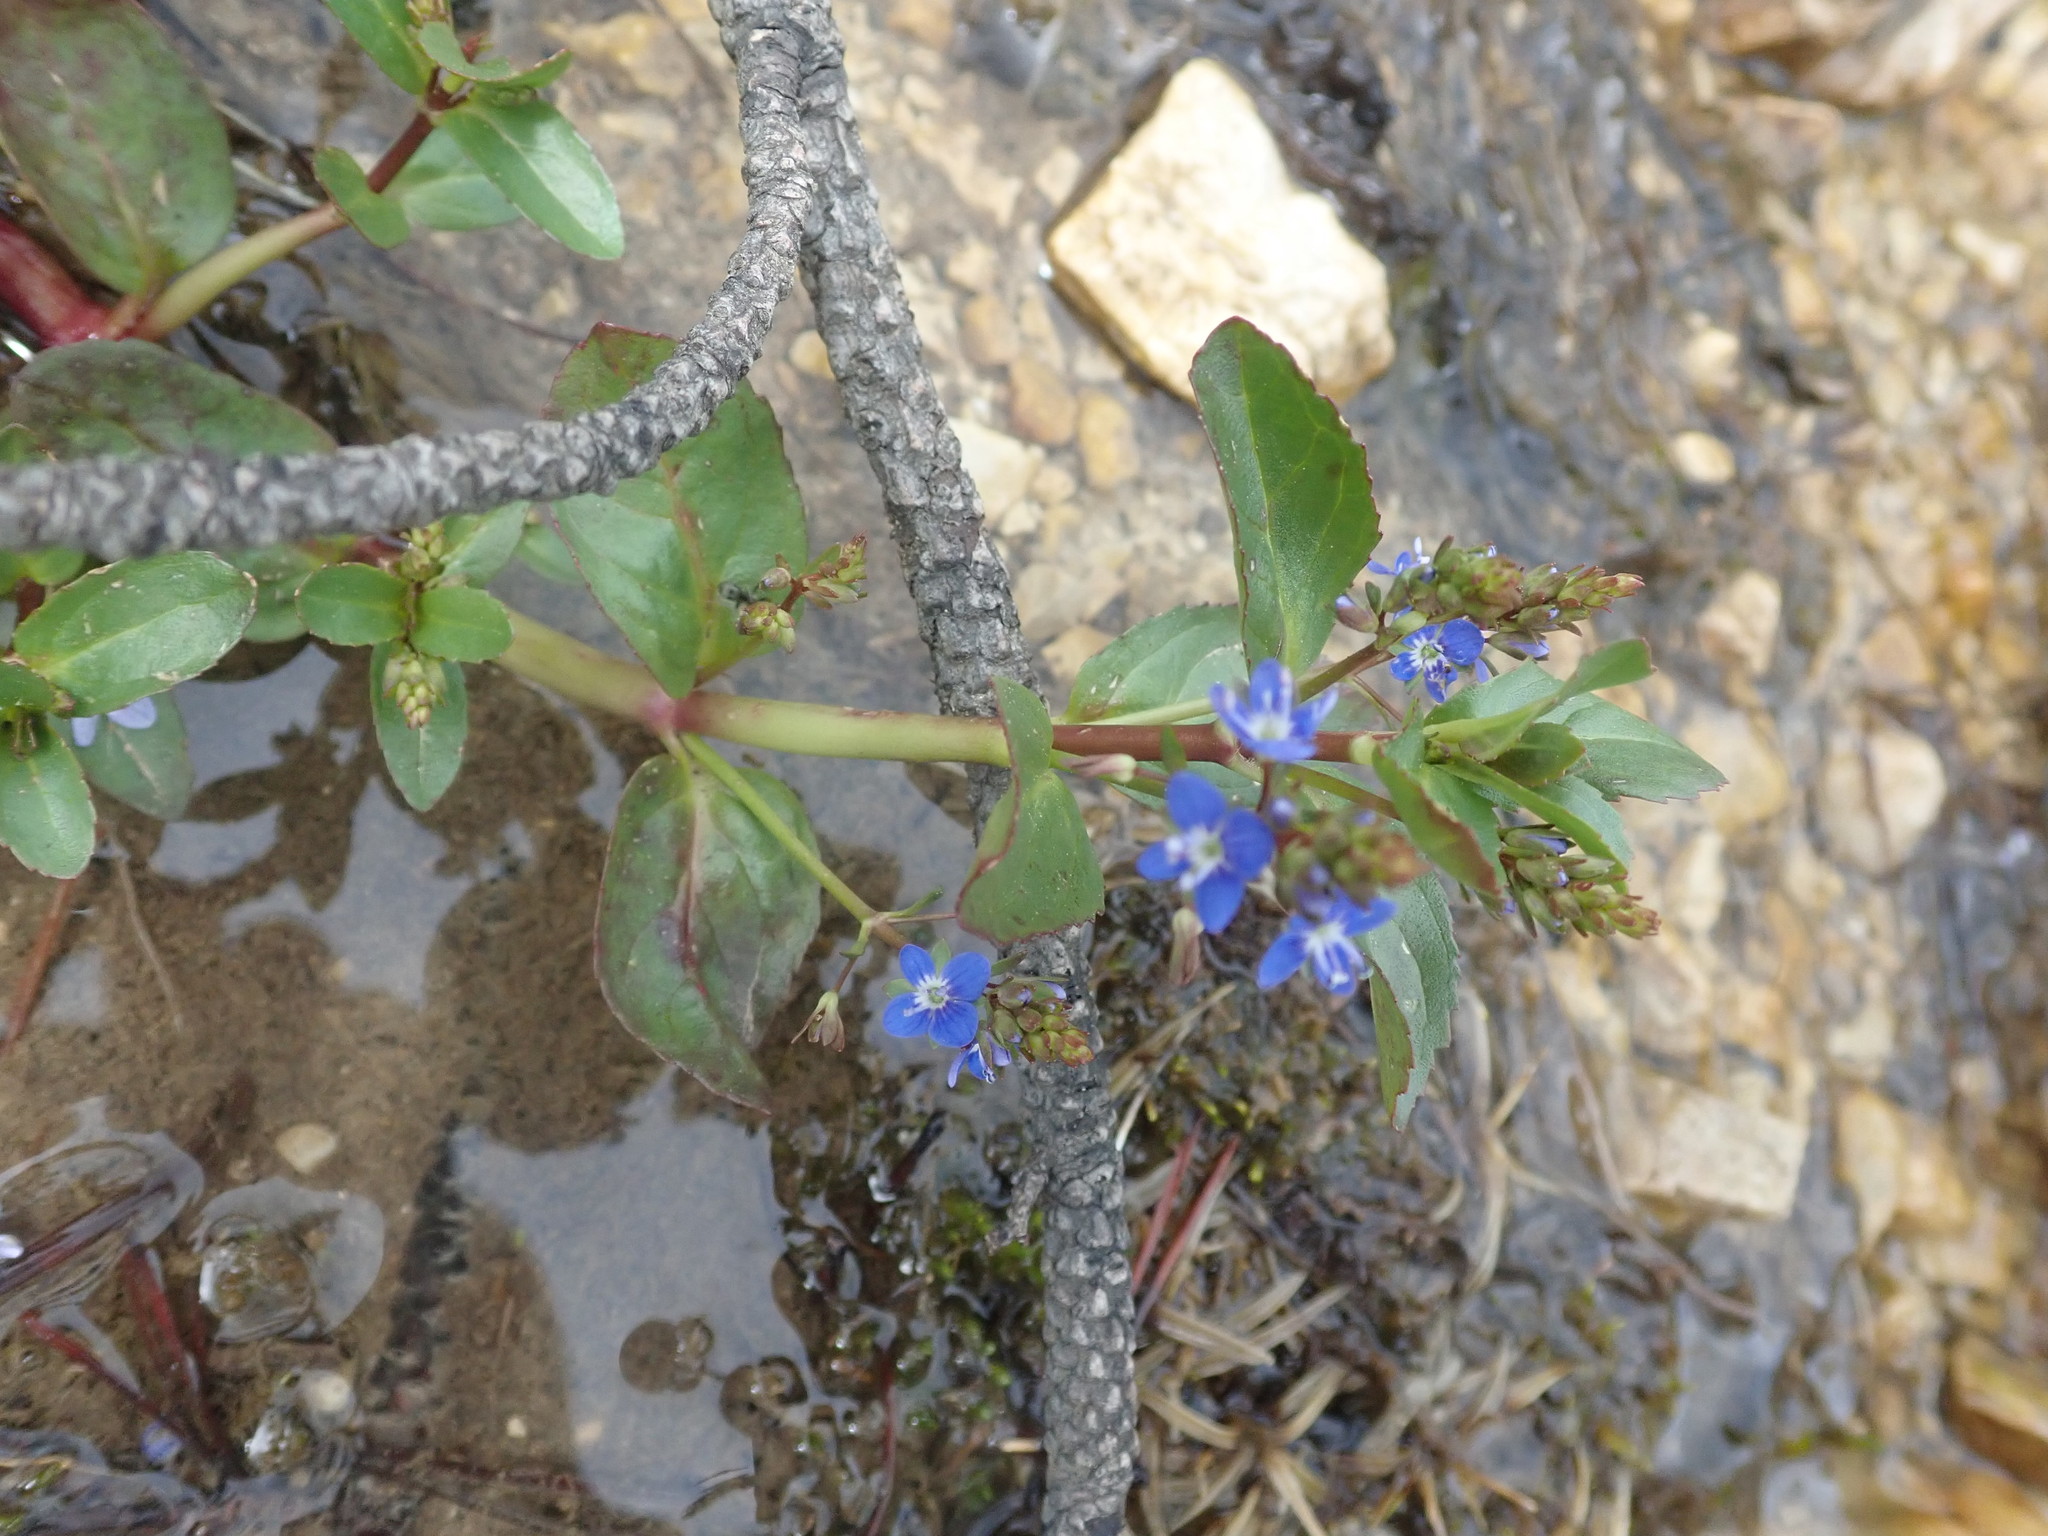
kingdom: Plantae
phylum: Tracheophyta
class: Magnoliopsida
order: Lamiales
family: Plantaginaceae
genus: Veronica
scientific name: Veronica beccabunga
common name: Brooklime
